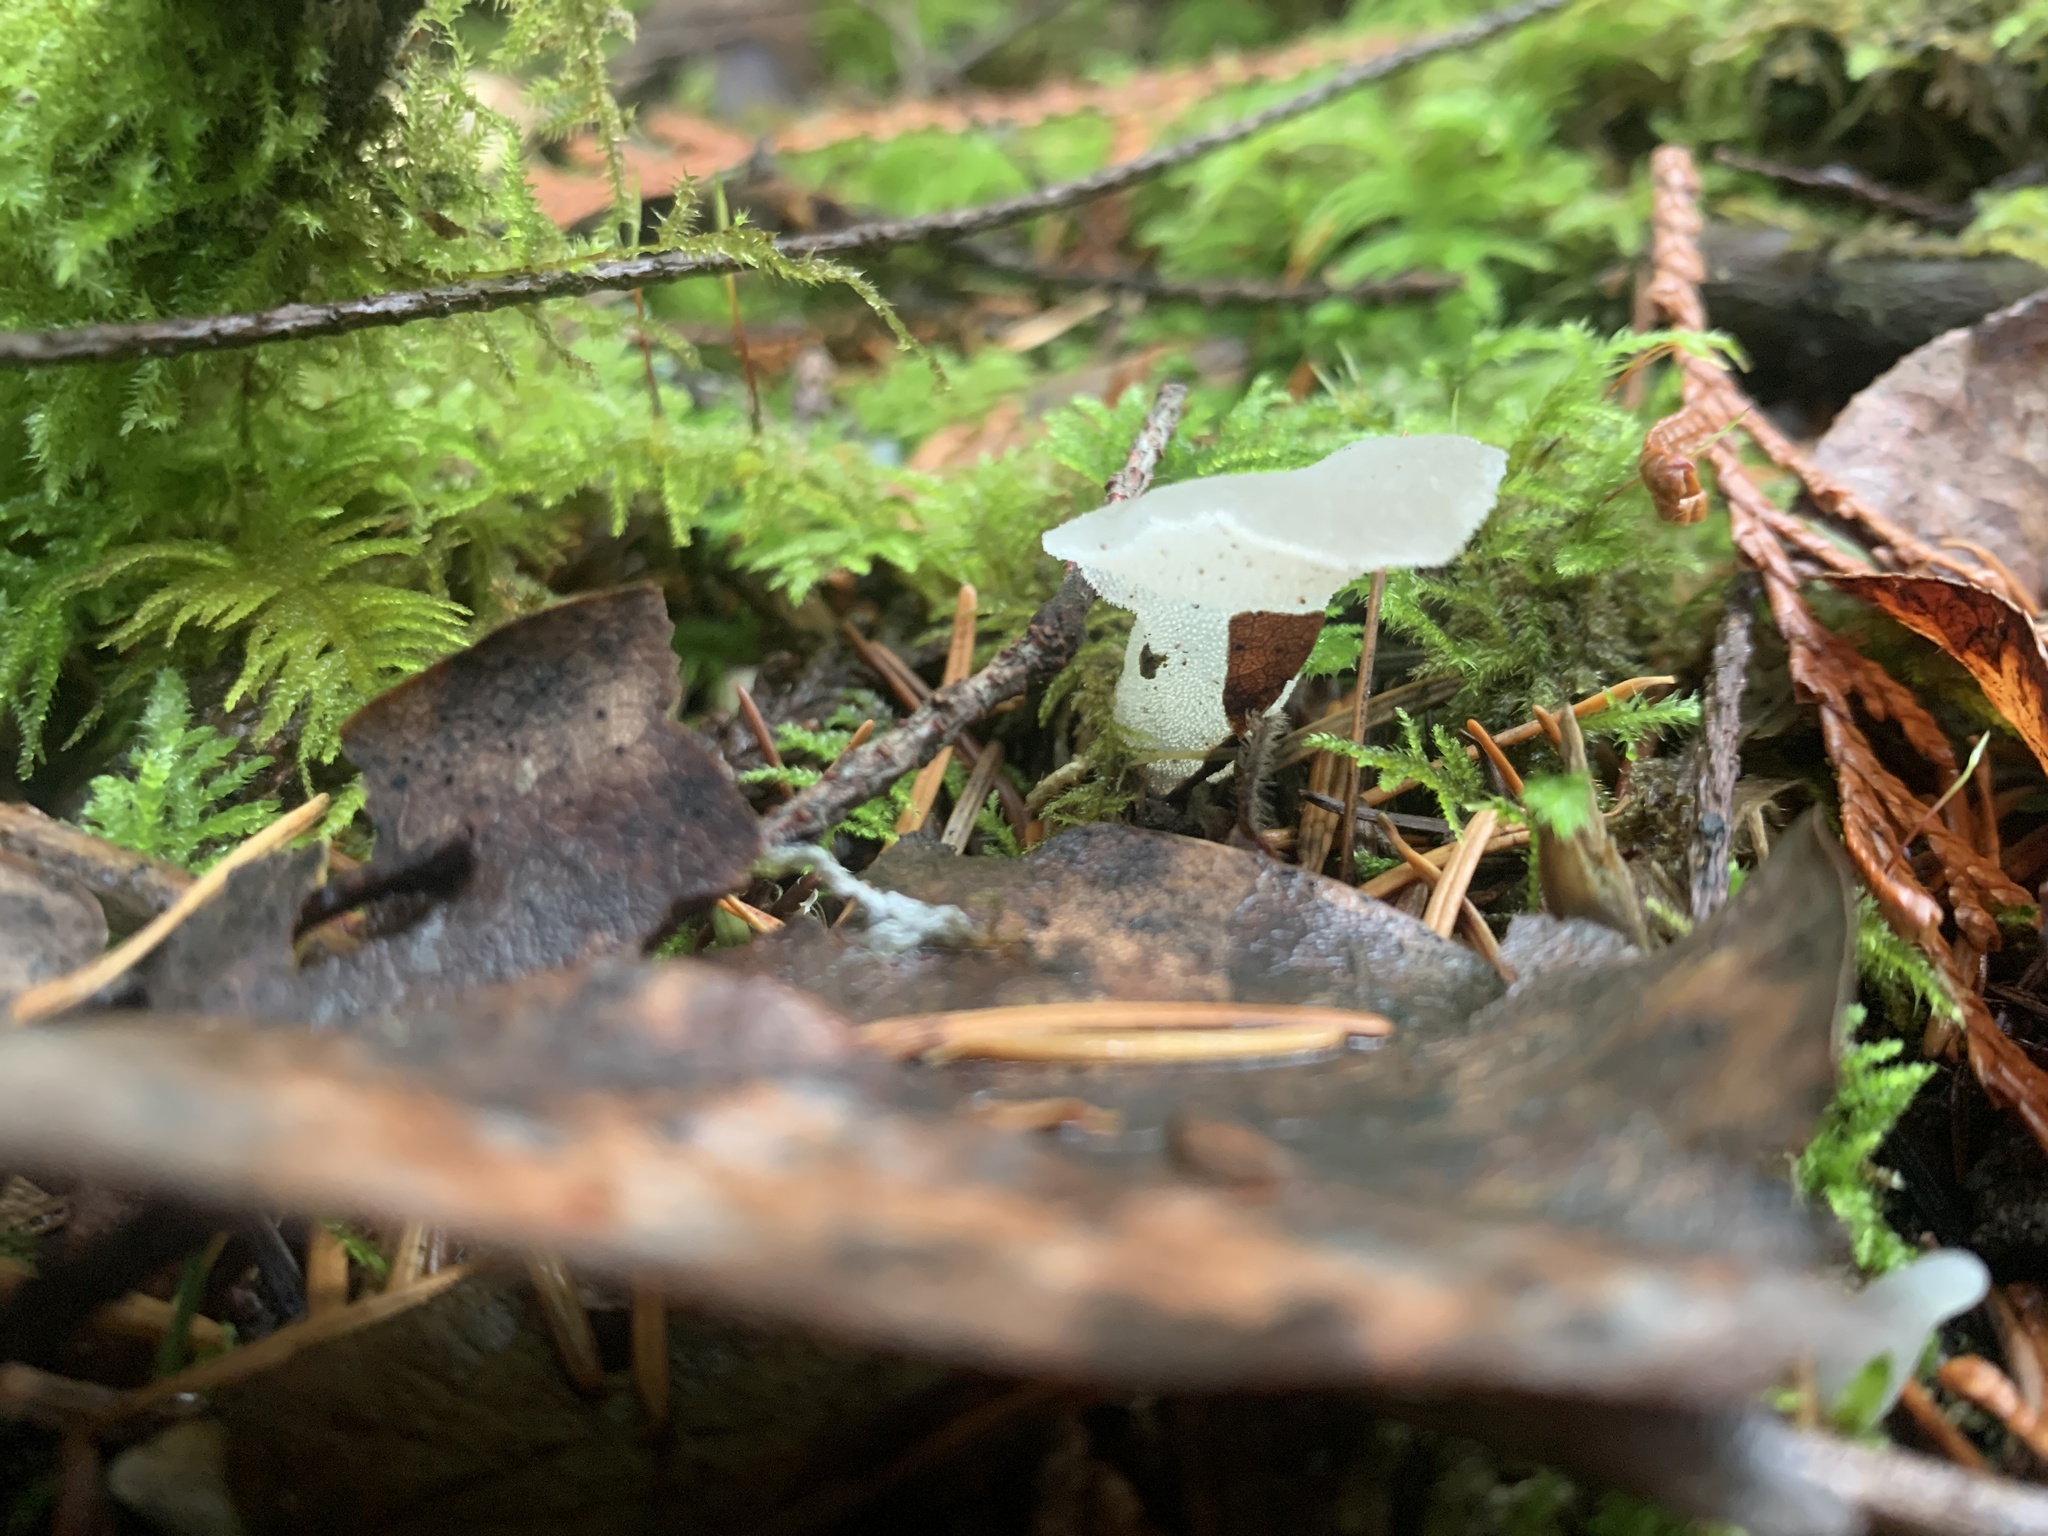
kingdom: Fungi
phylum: Basidiomycota
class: Agaricomycetes
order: Auriculariales
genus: Pseudohydnum
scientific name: Pseudohydnum gelatinosum
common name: Jelly tongue
